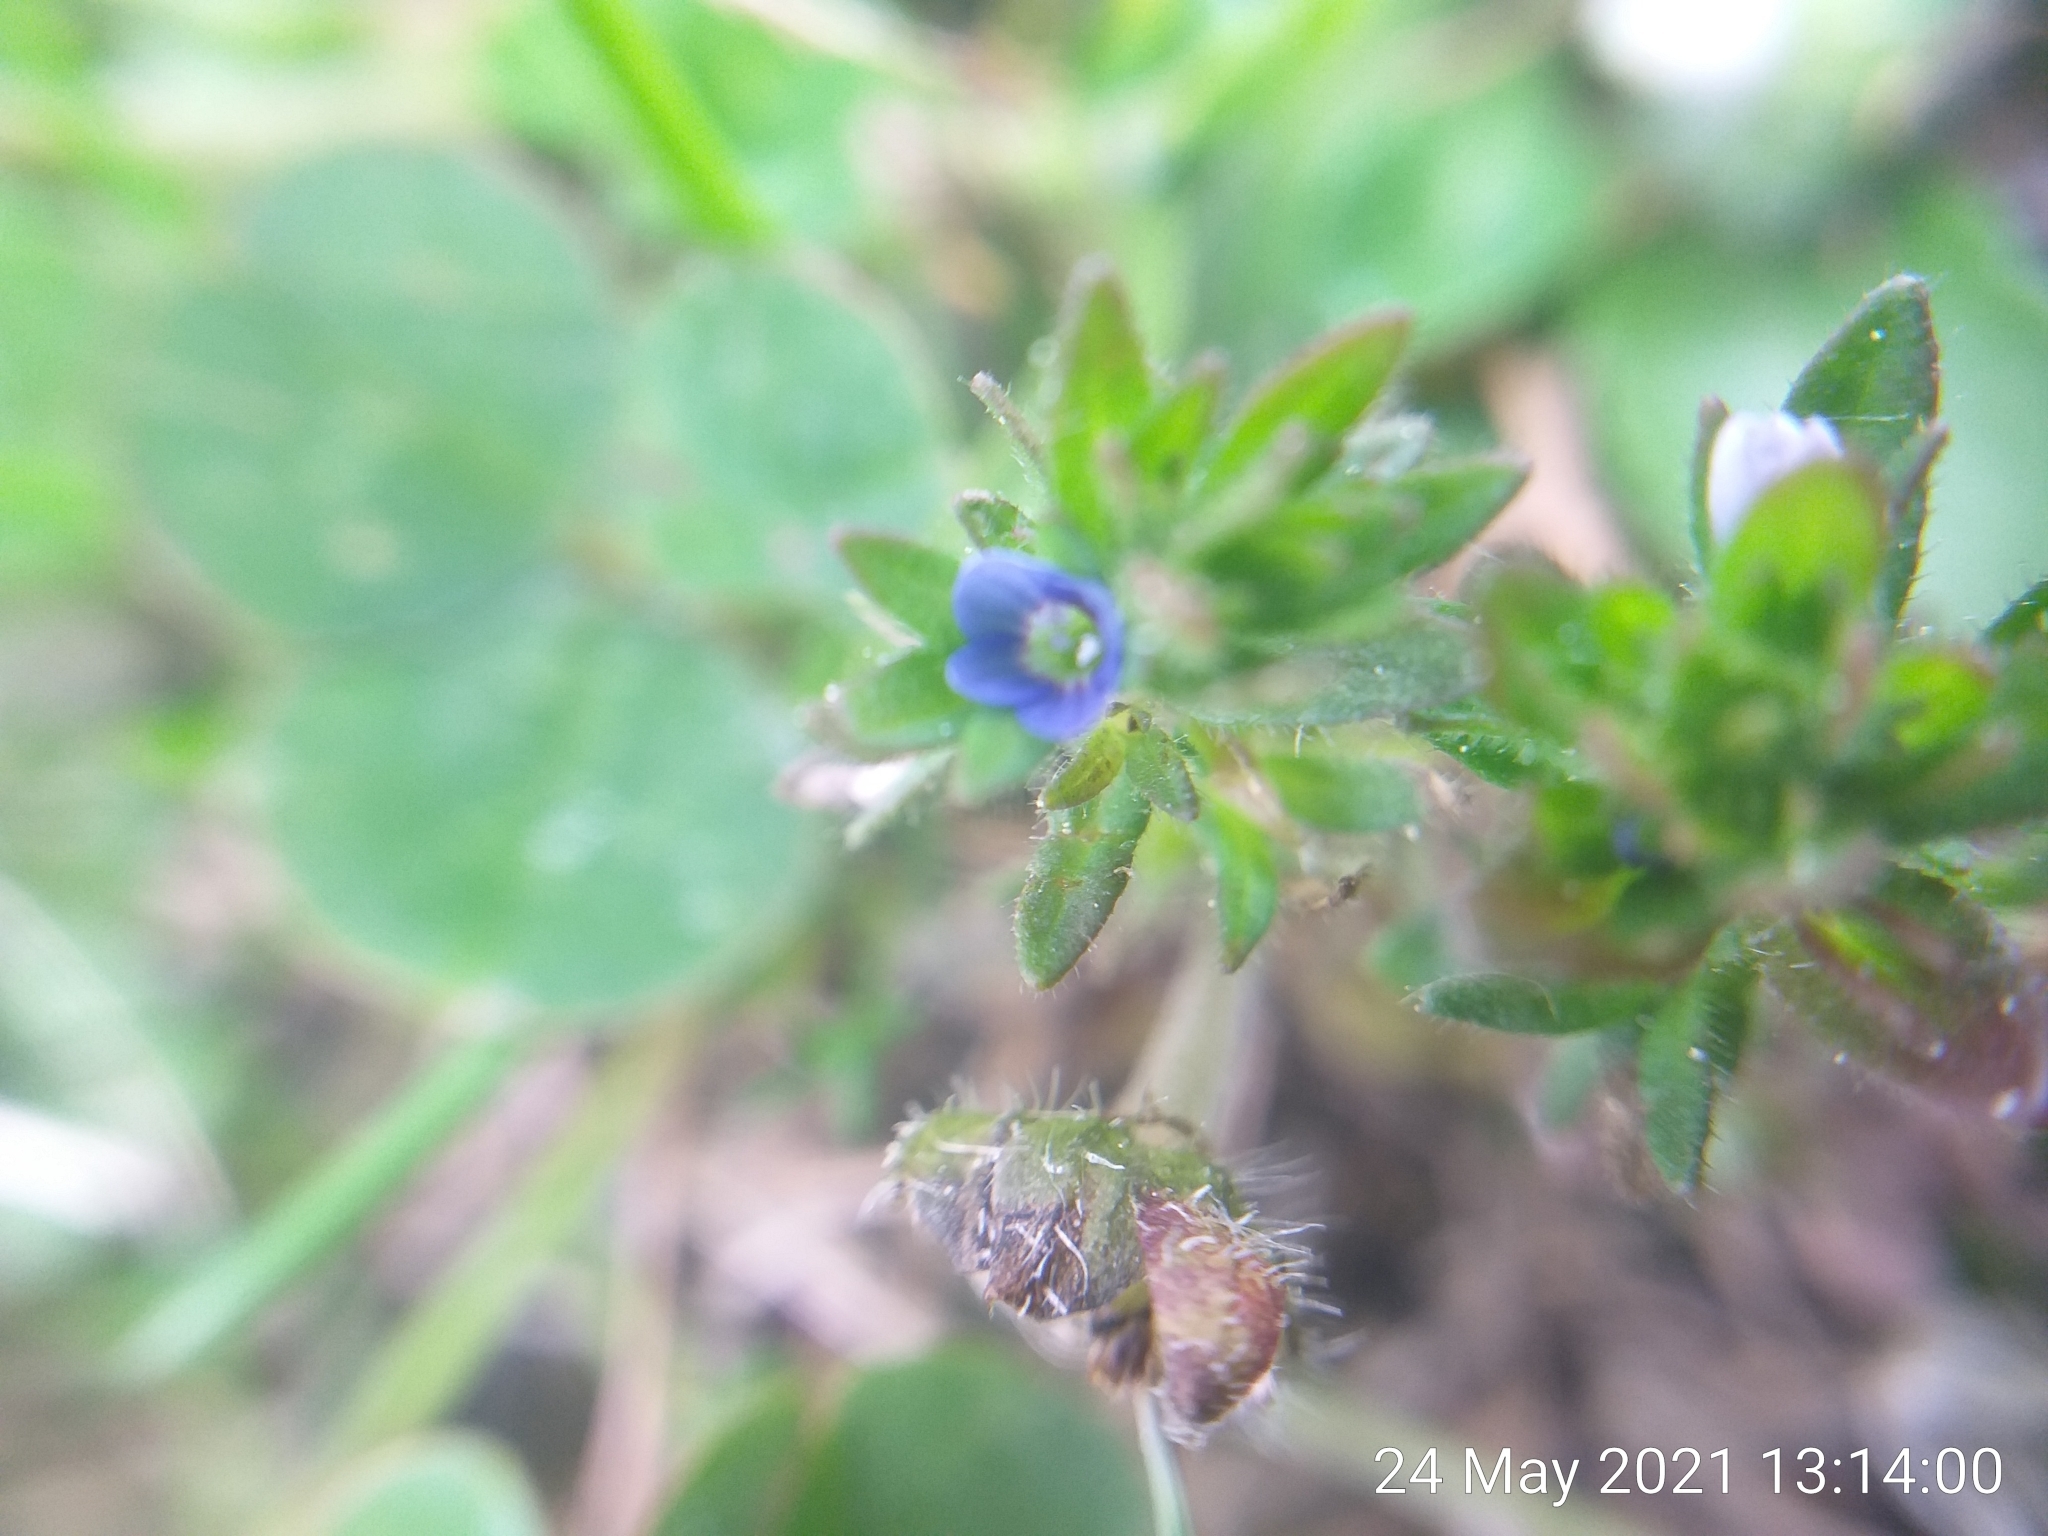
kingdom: Plantae
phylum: Tracheophyta
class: Magnoliopsida
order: Lamiales
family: Plantaginaceae
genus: Veronica
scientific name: Veronica arvensis
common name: Corn speedwell
